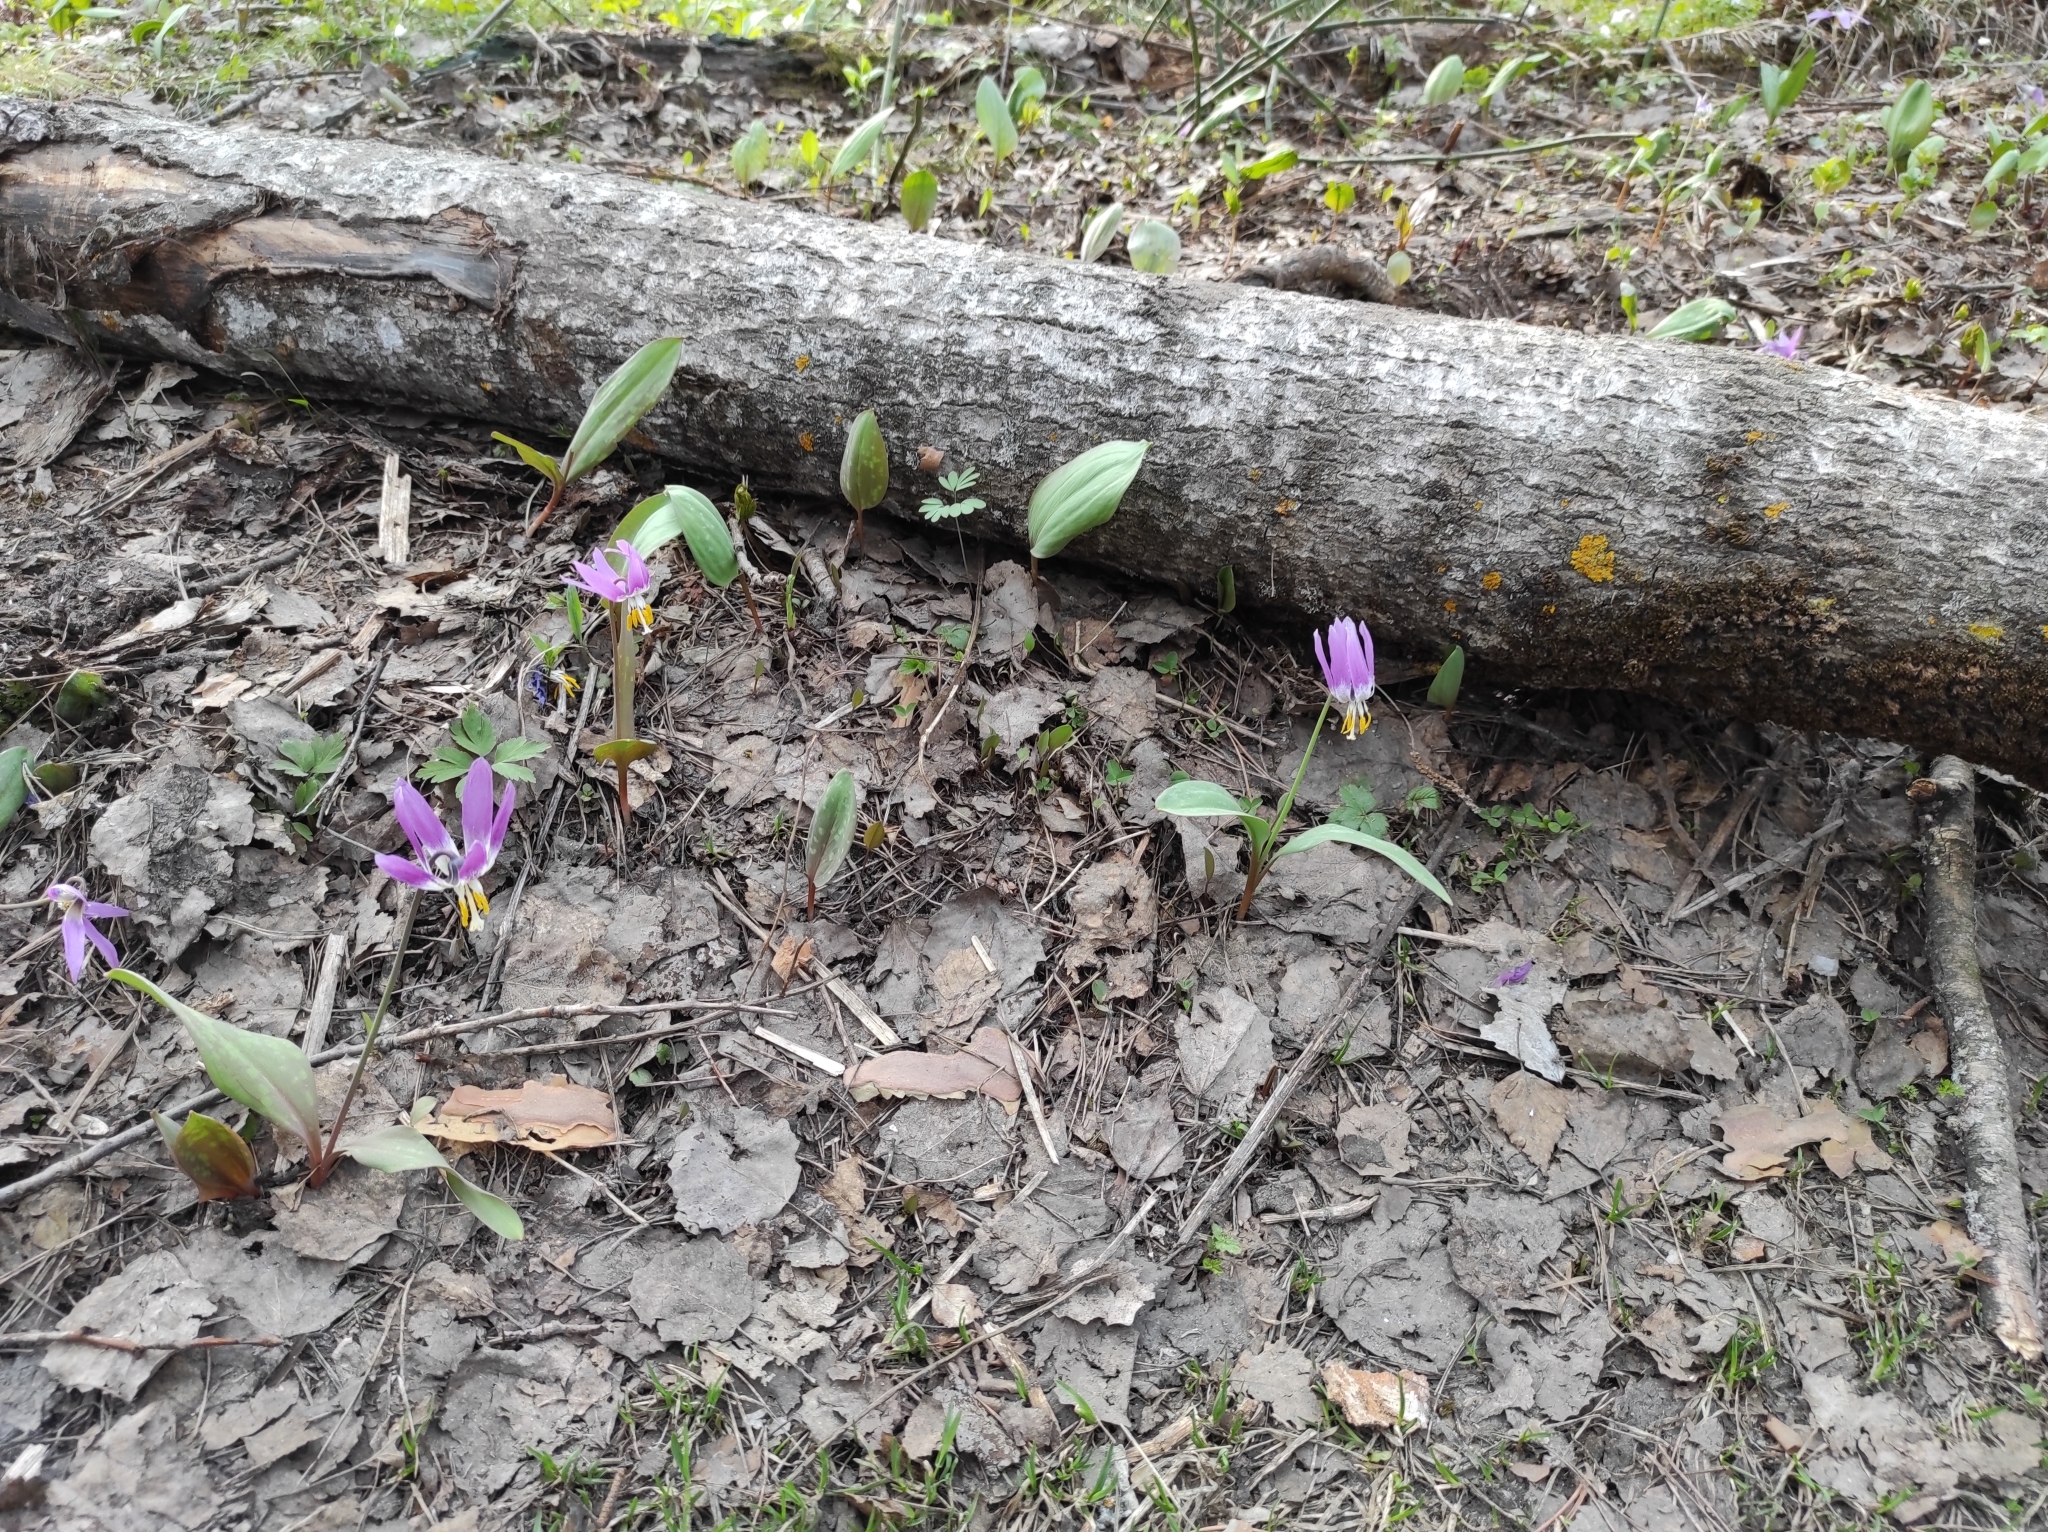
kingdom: Plantae
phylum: Tracheophyta
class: Liliopsida
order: Liliales
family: Liliaceae
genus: Erythronium
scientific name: Erythronium sibiricum
